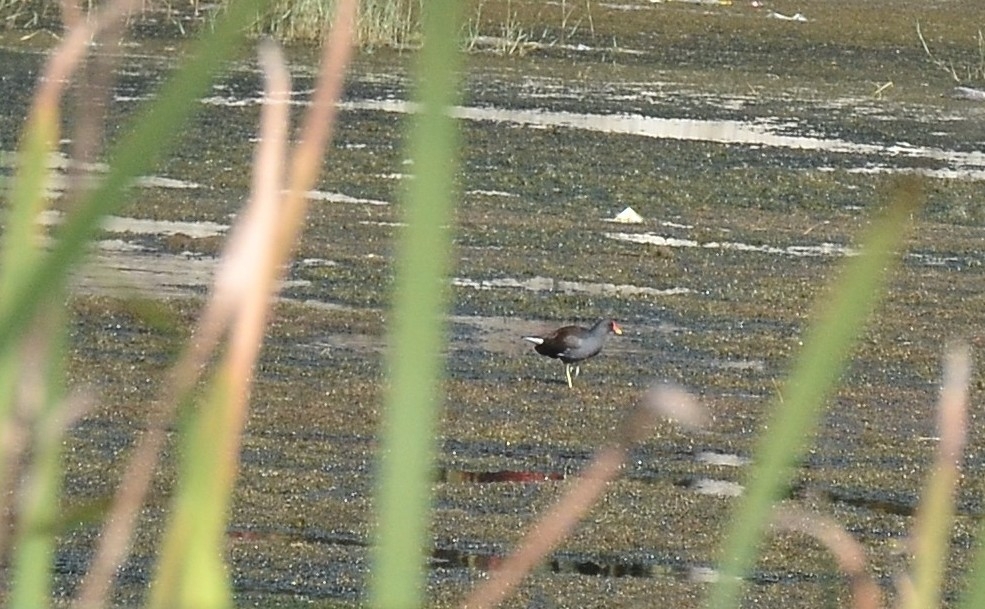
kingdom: Animalia
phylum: Chordata
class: Aves
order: Gruiformes
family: Rallidae
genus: Gallinula
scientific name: Gallinula chloropus
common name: Common moorhen
